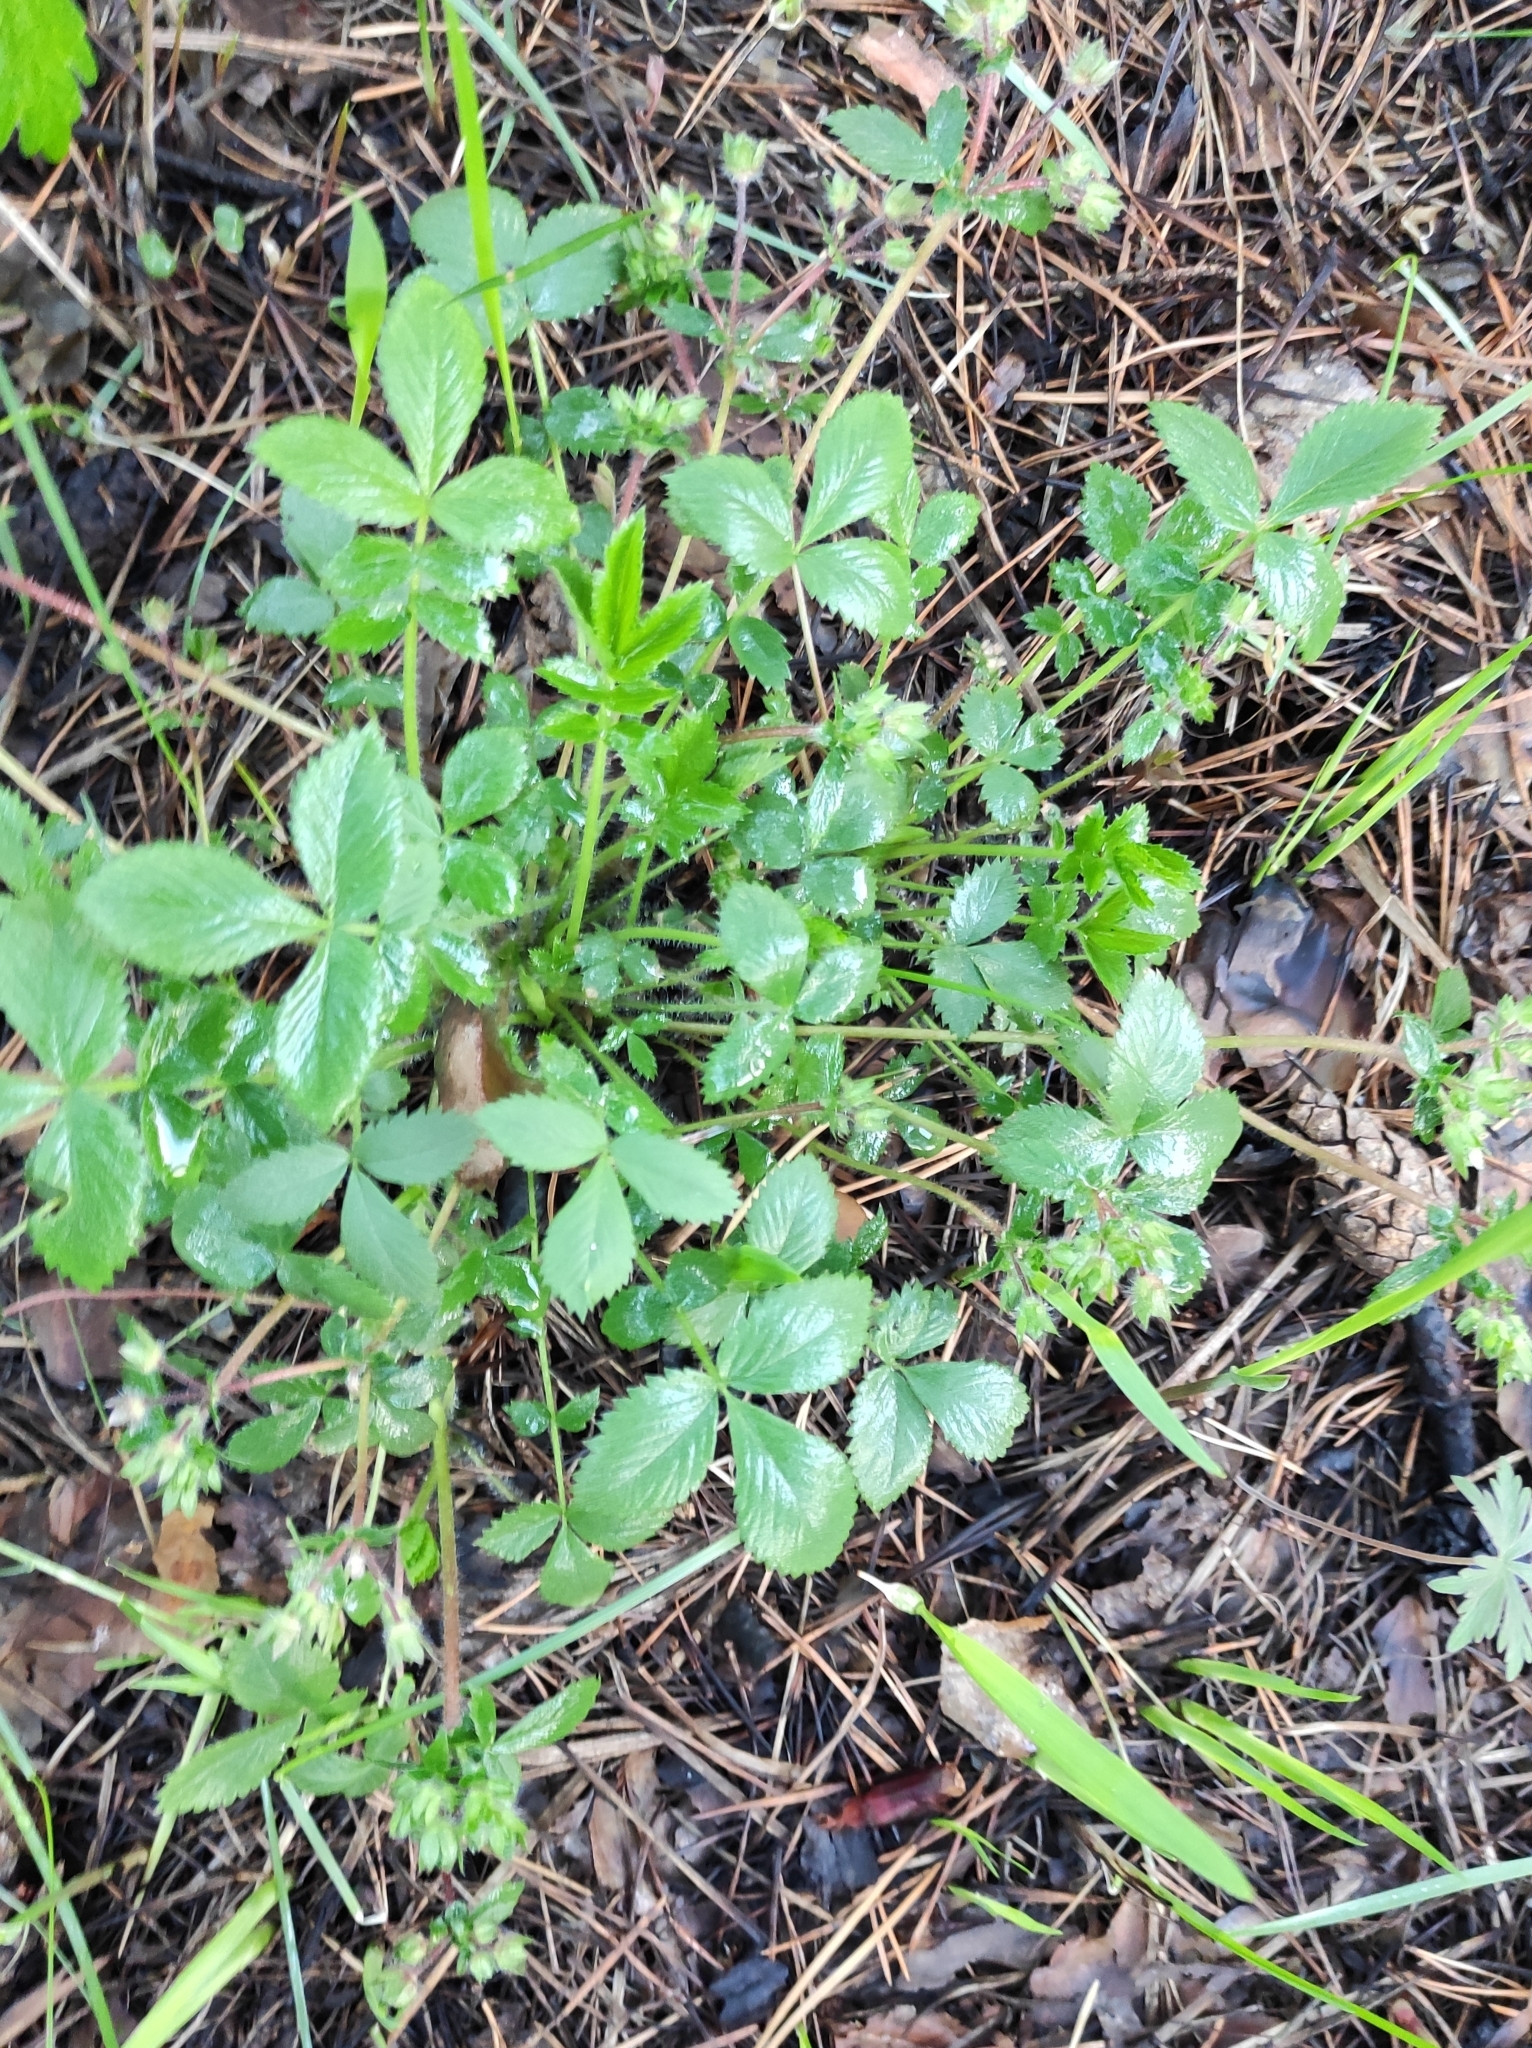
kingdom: Plantae
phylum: Tracheophyta
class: Magnoliopsida
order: Rosales
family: Rosaceae
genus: Potentilla
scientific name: Potentilla fragarioides
